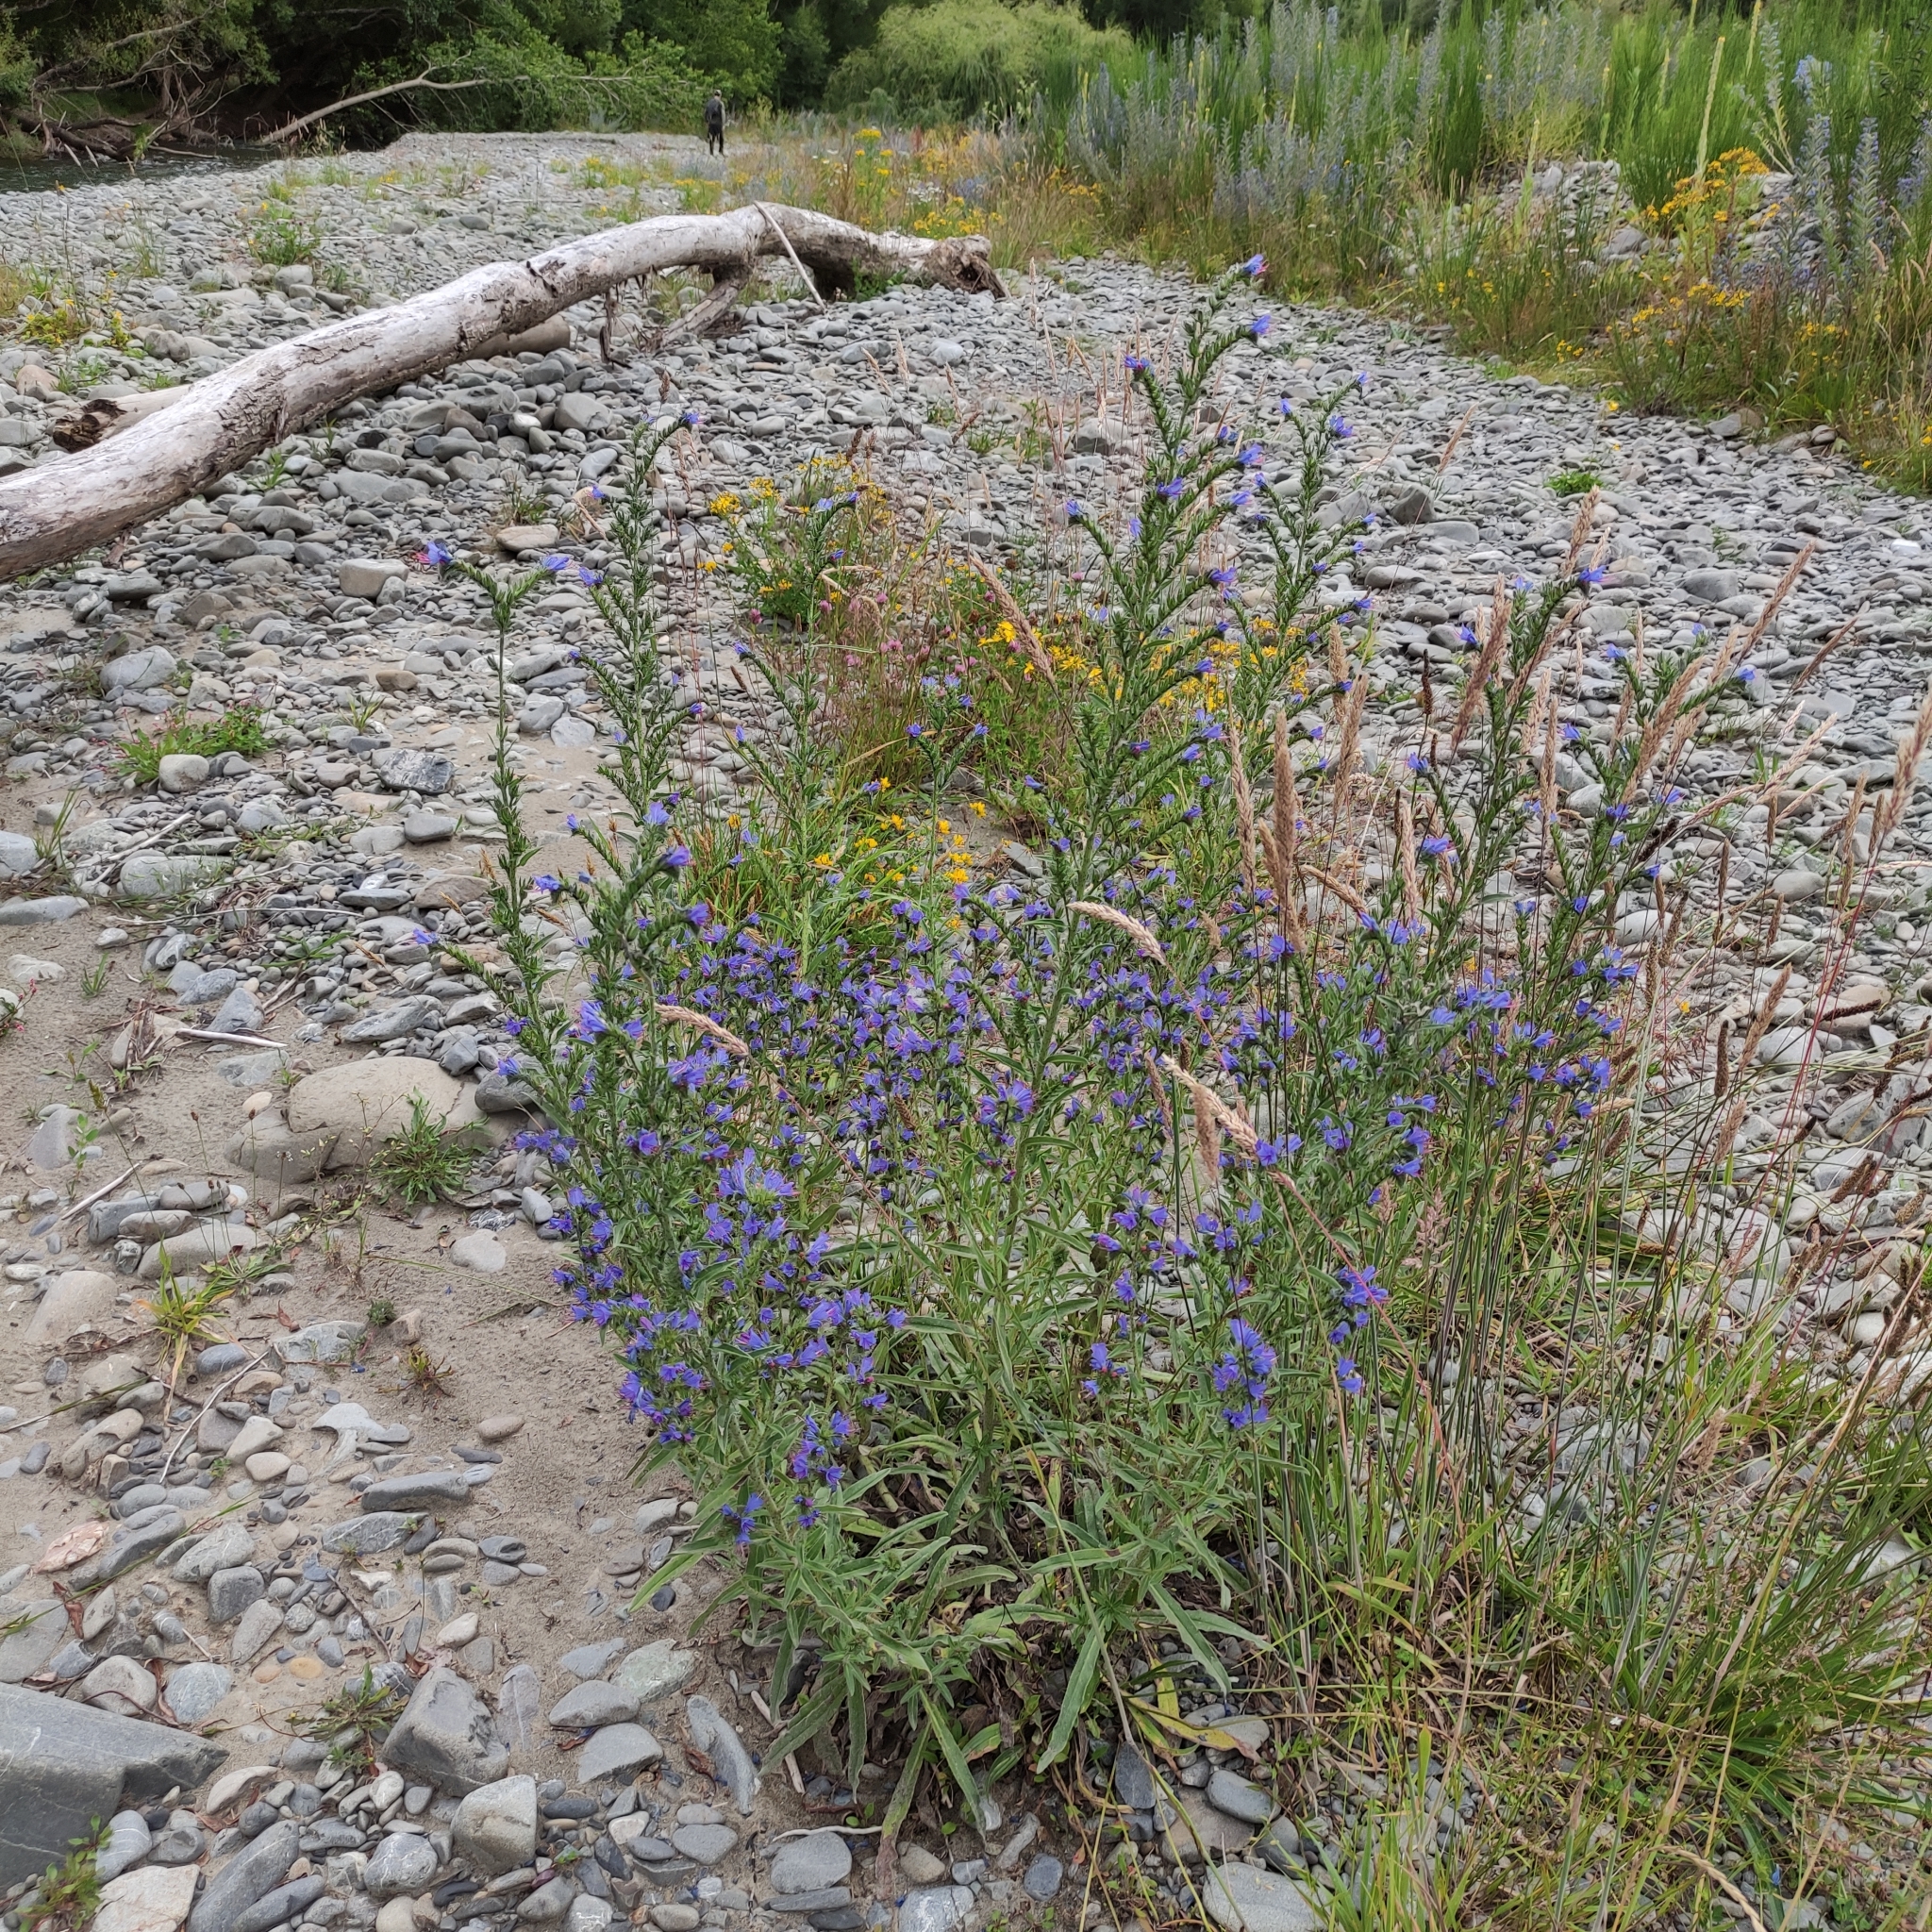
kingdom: Plantae
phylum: Tracheophyta
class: Magnoliopsida
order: Boraginales
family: Boraginaceae
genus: Echium
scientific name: Echium vulgare
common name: Common viper's bugloss
